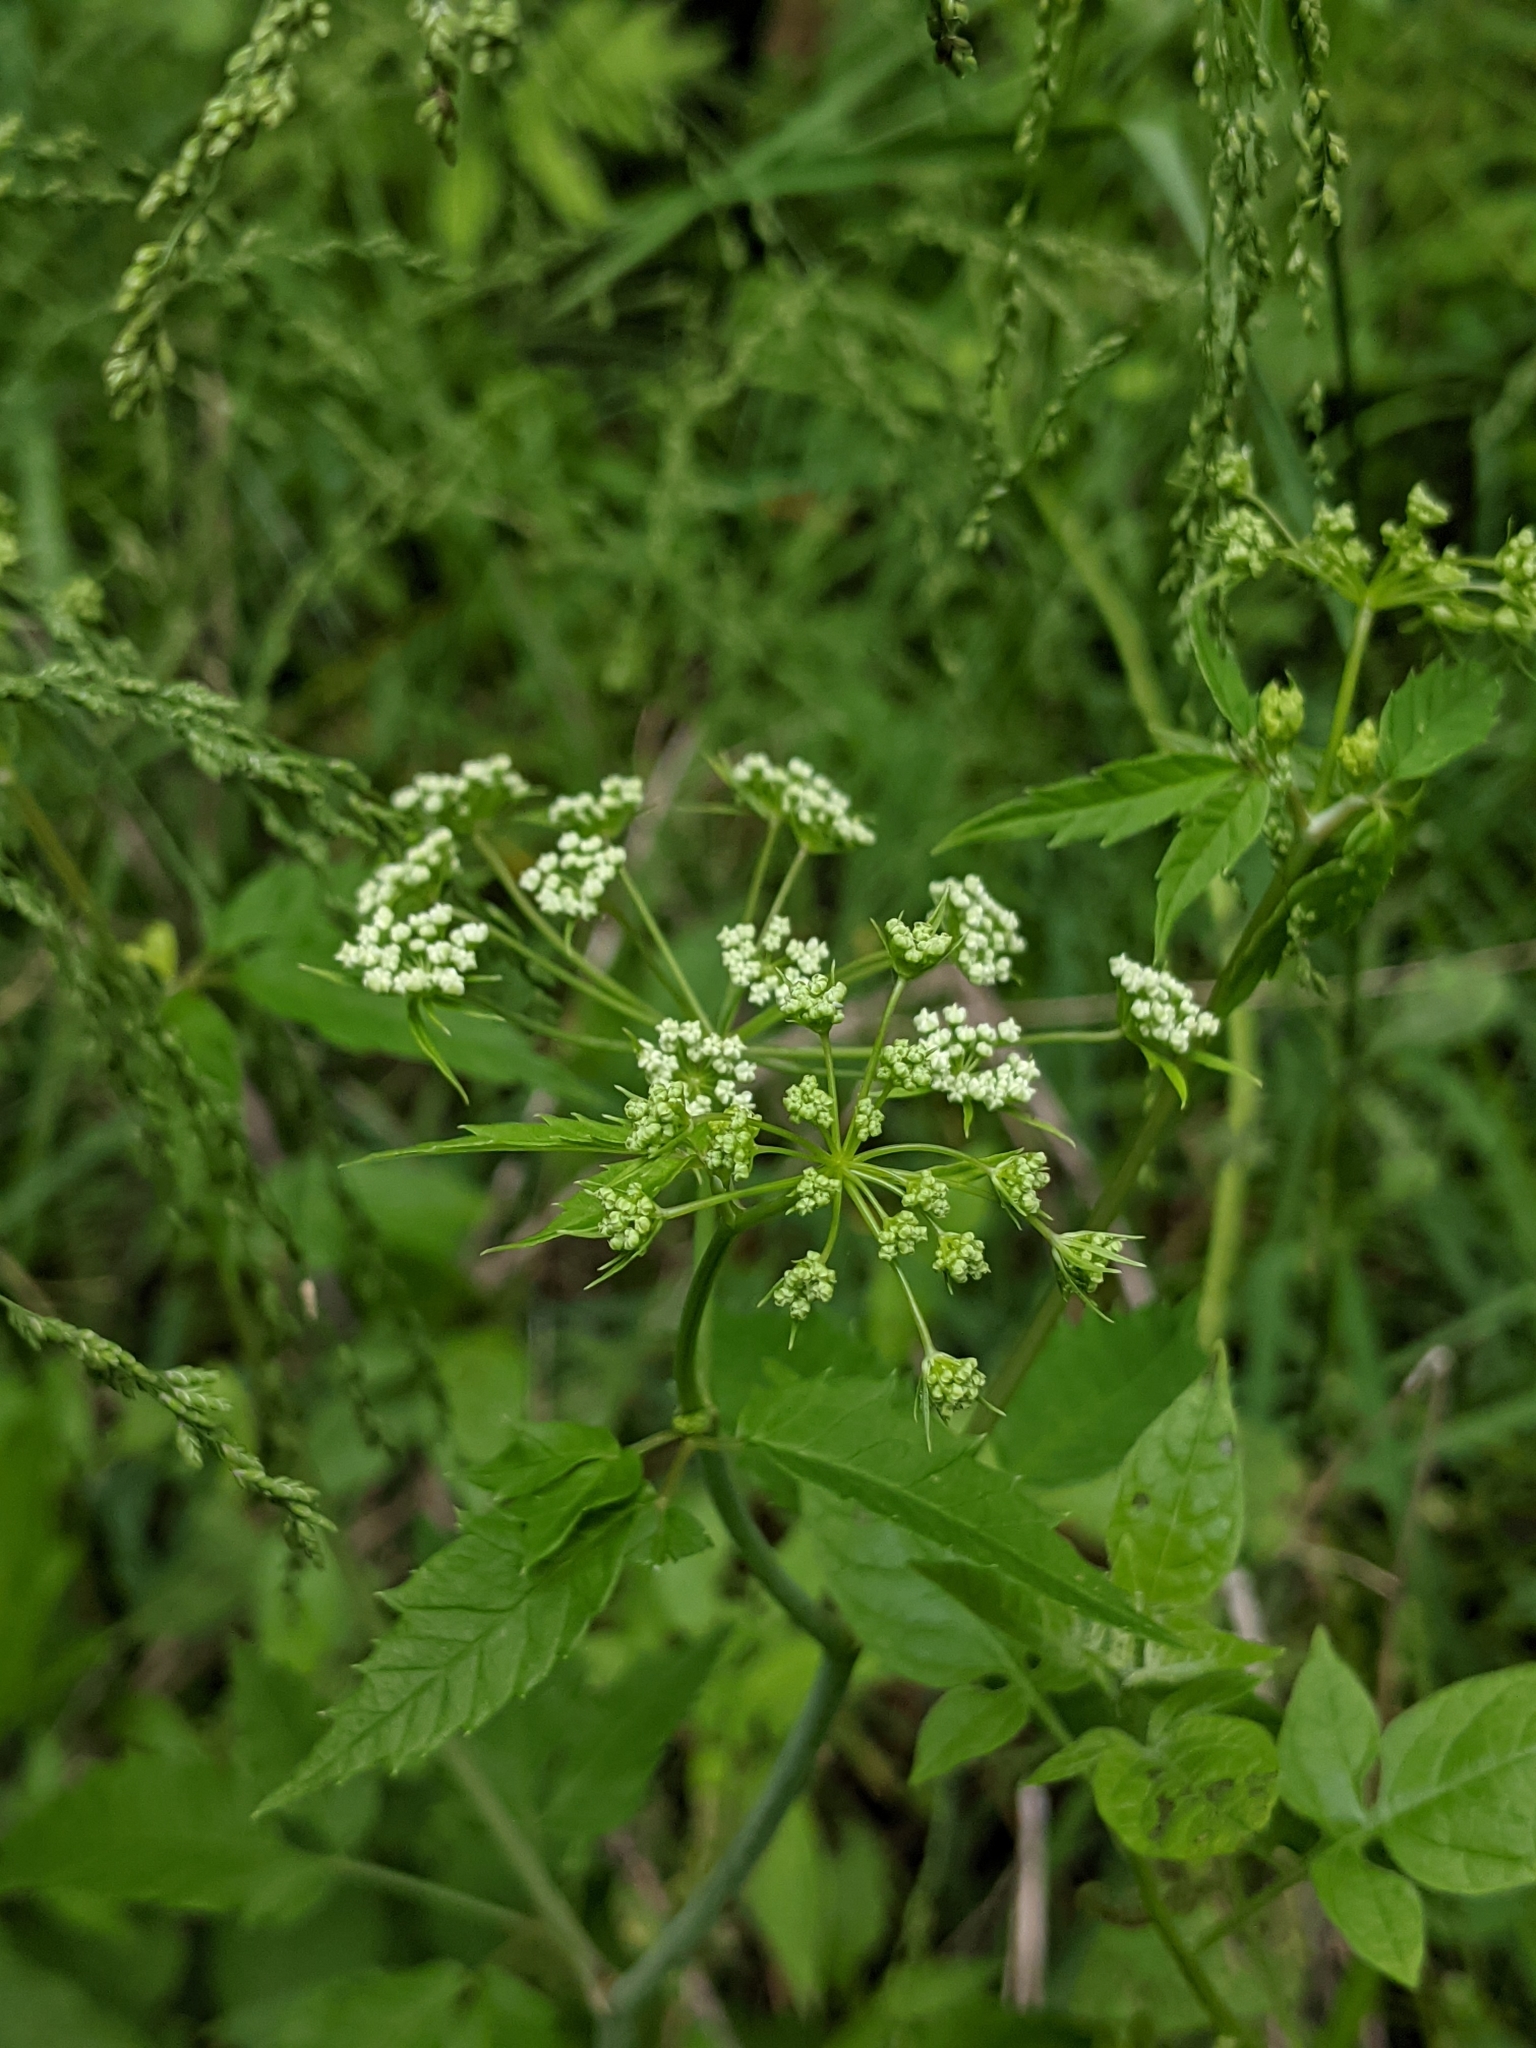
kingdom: Plantae
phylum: Tracheophyta
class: Magnoliopsida
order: Apiales
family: Apiaceae
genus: Cicuta
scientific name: Cicuta maculata
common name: Spotted cowbane
